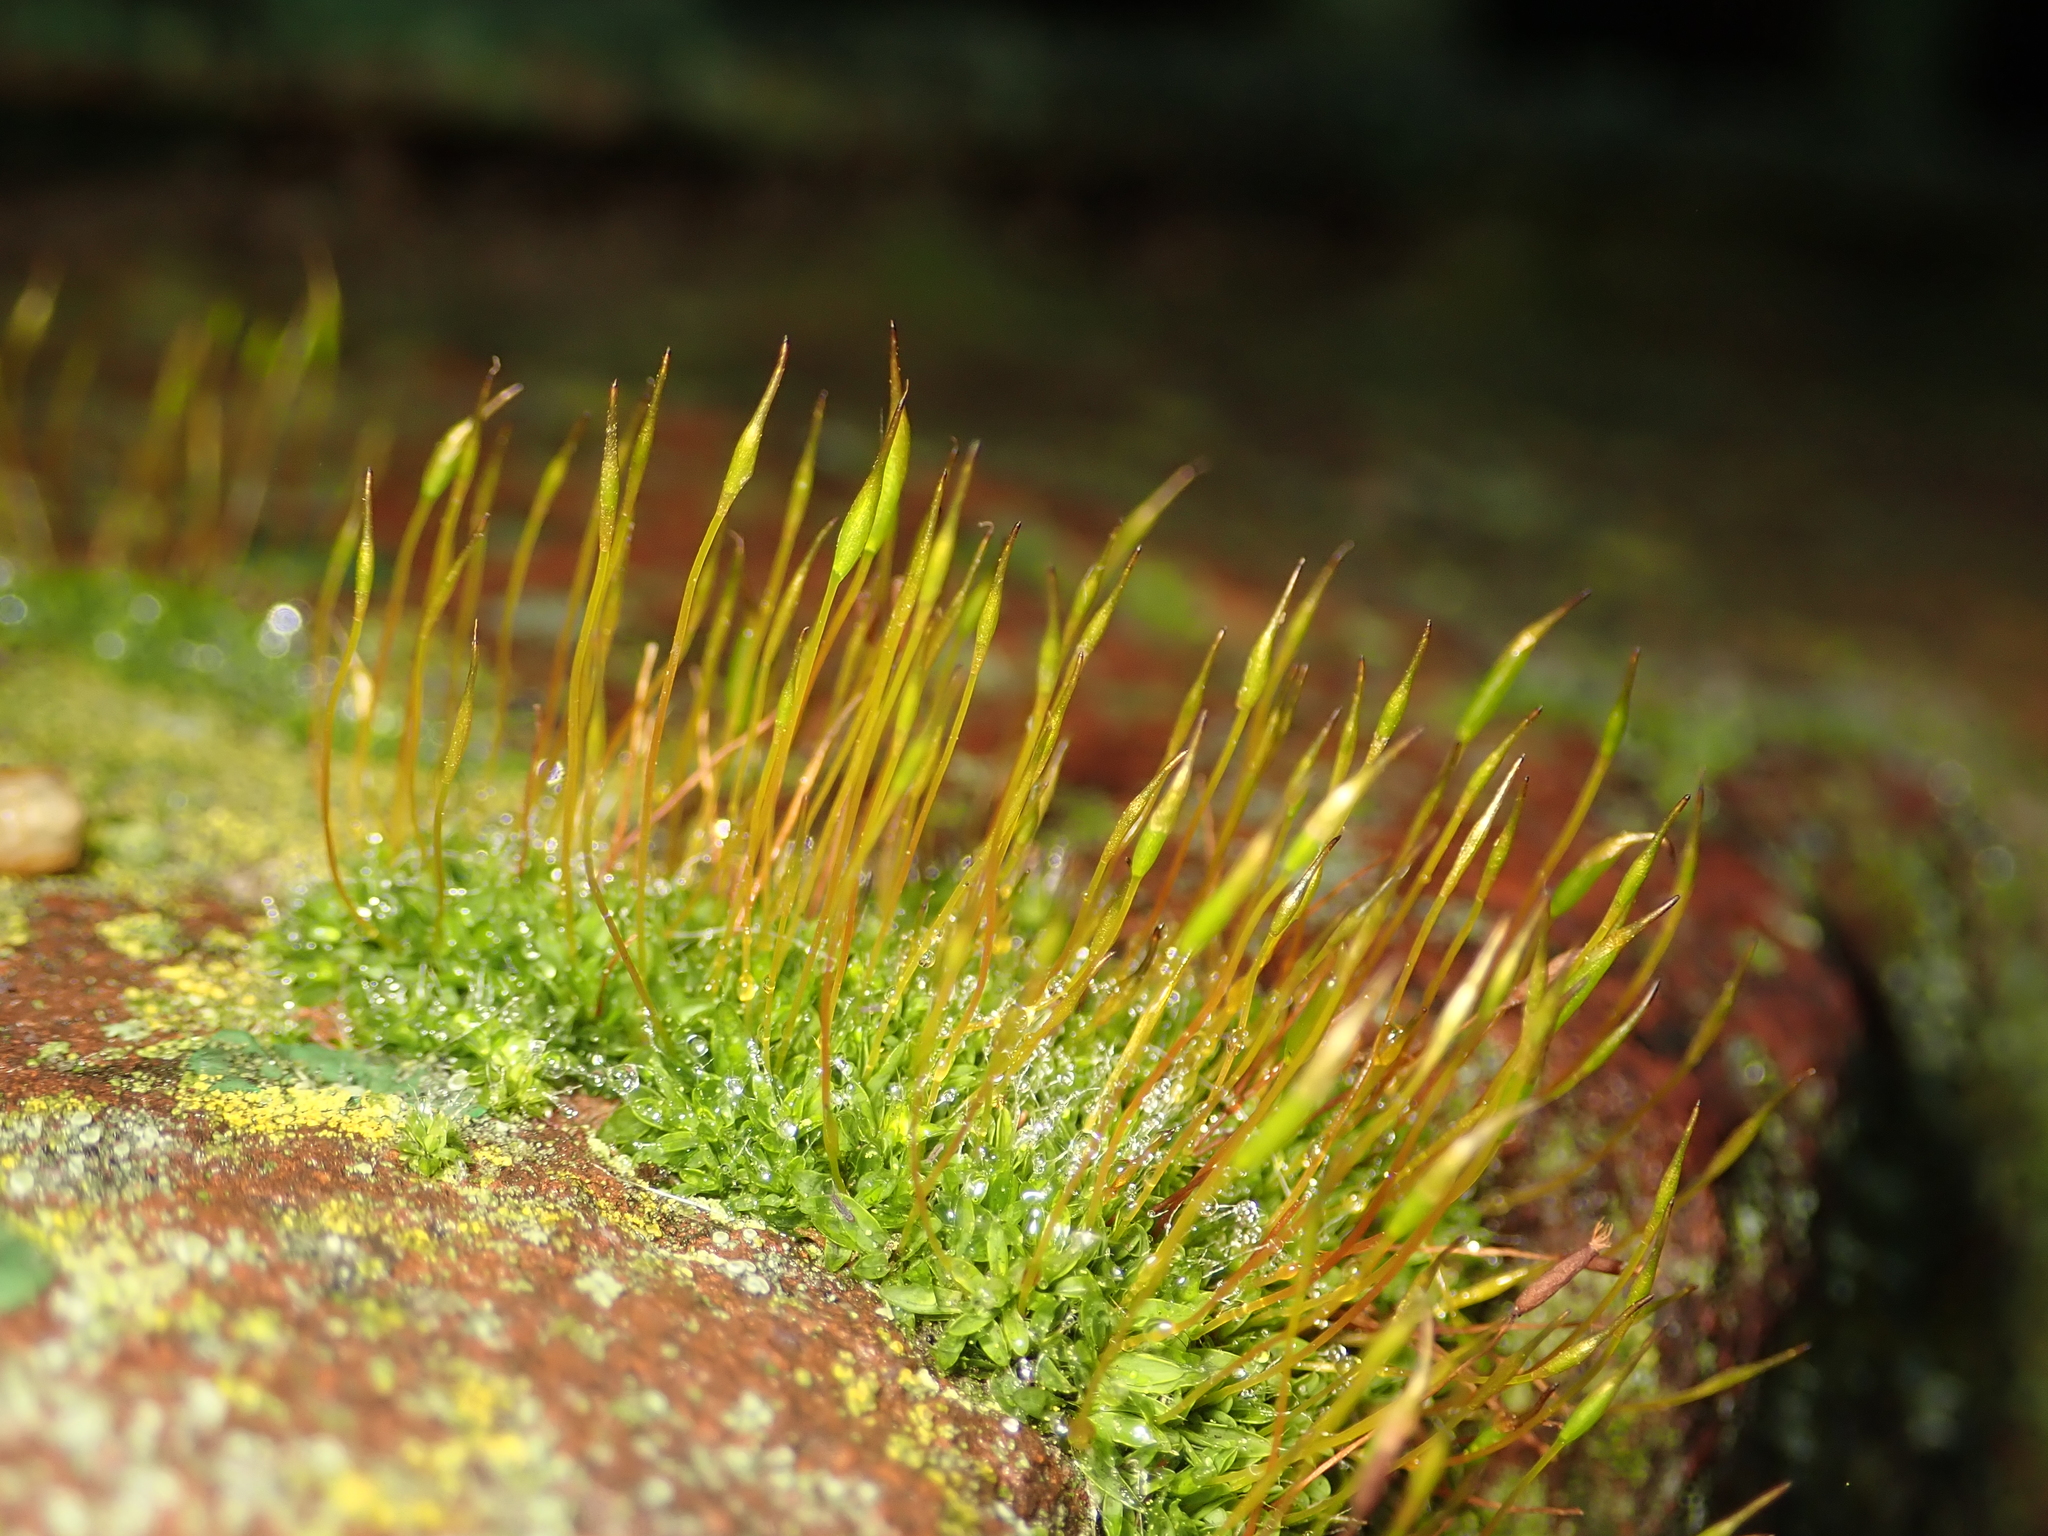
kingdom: Plantae
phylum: Bryophyta
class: Bryopsida
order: Pottiales
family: Pottiaceae
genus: Tortula
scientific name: Tortula muralis
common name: Wall screw-moss
